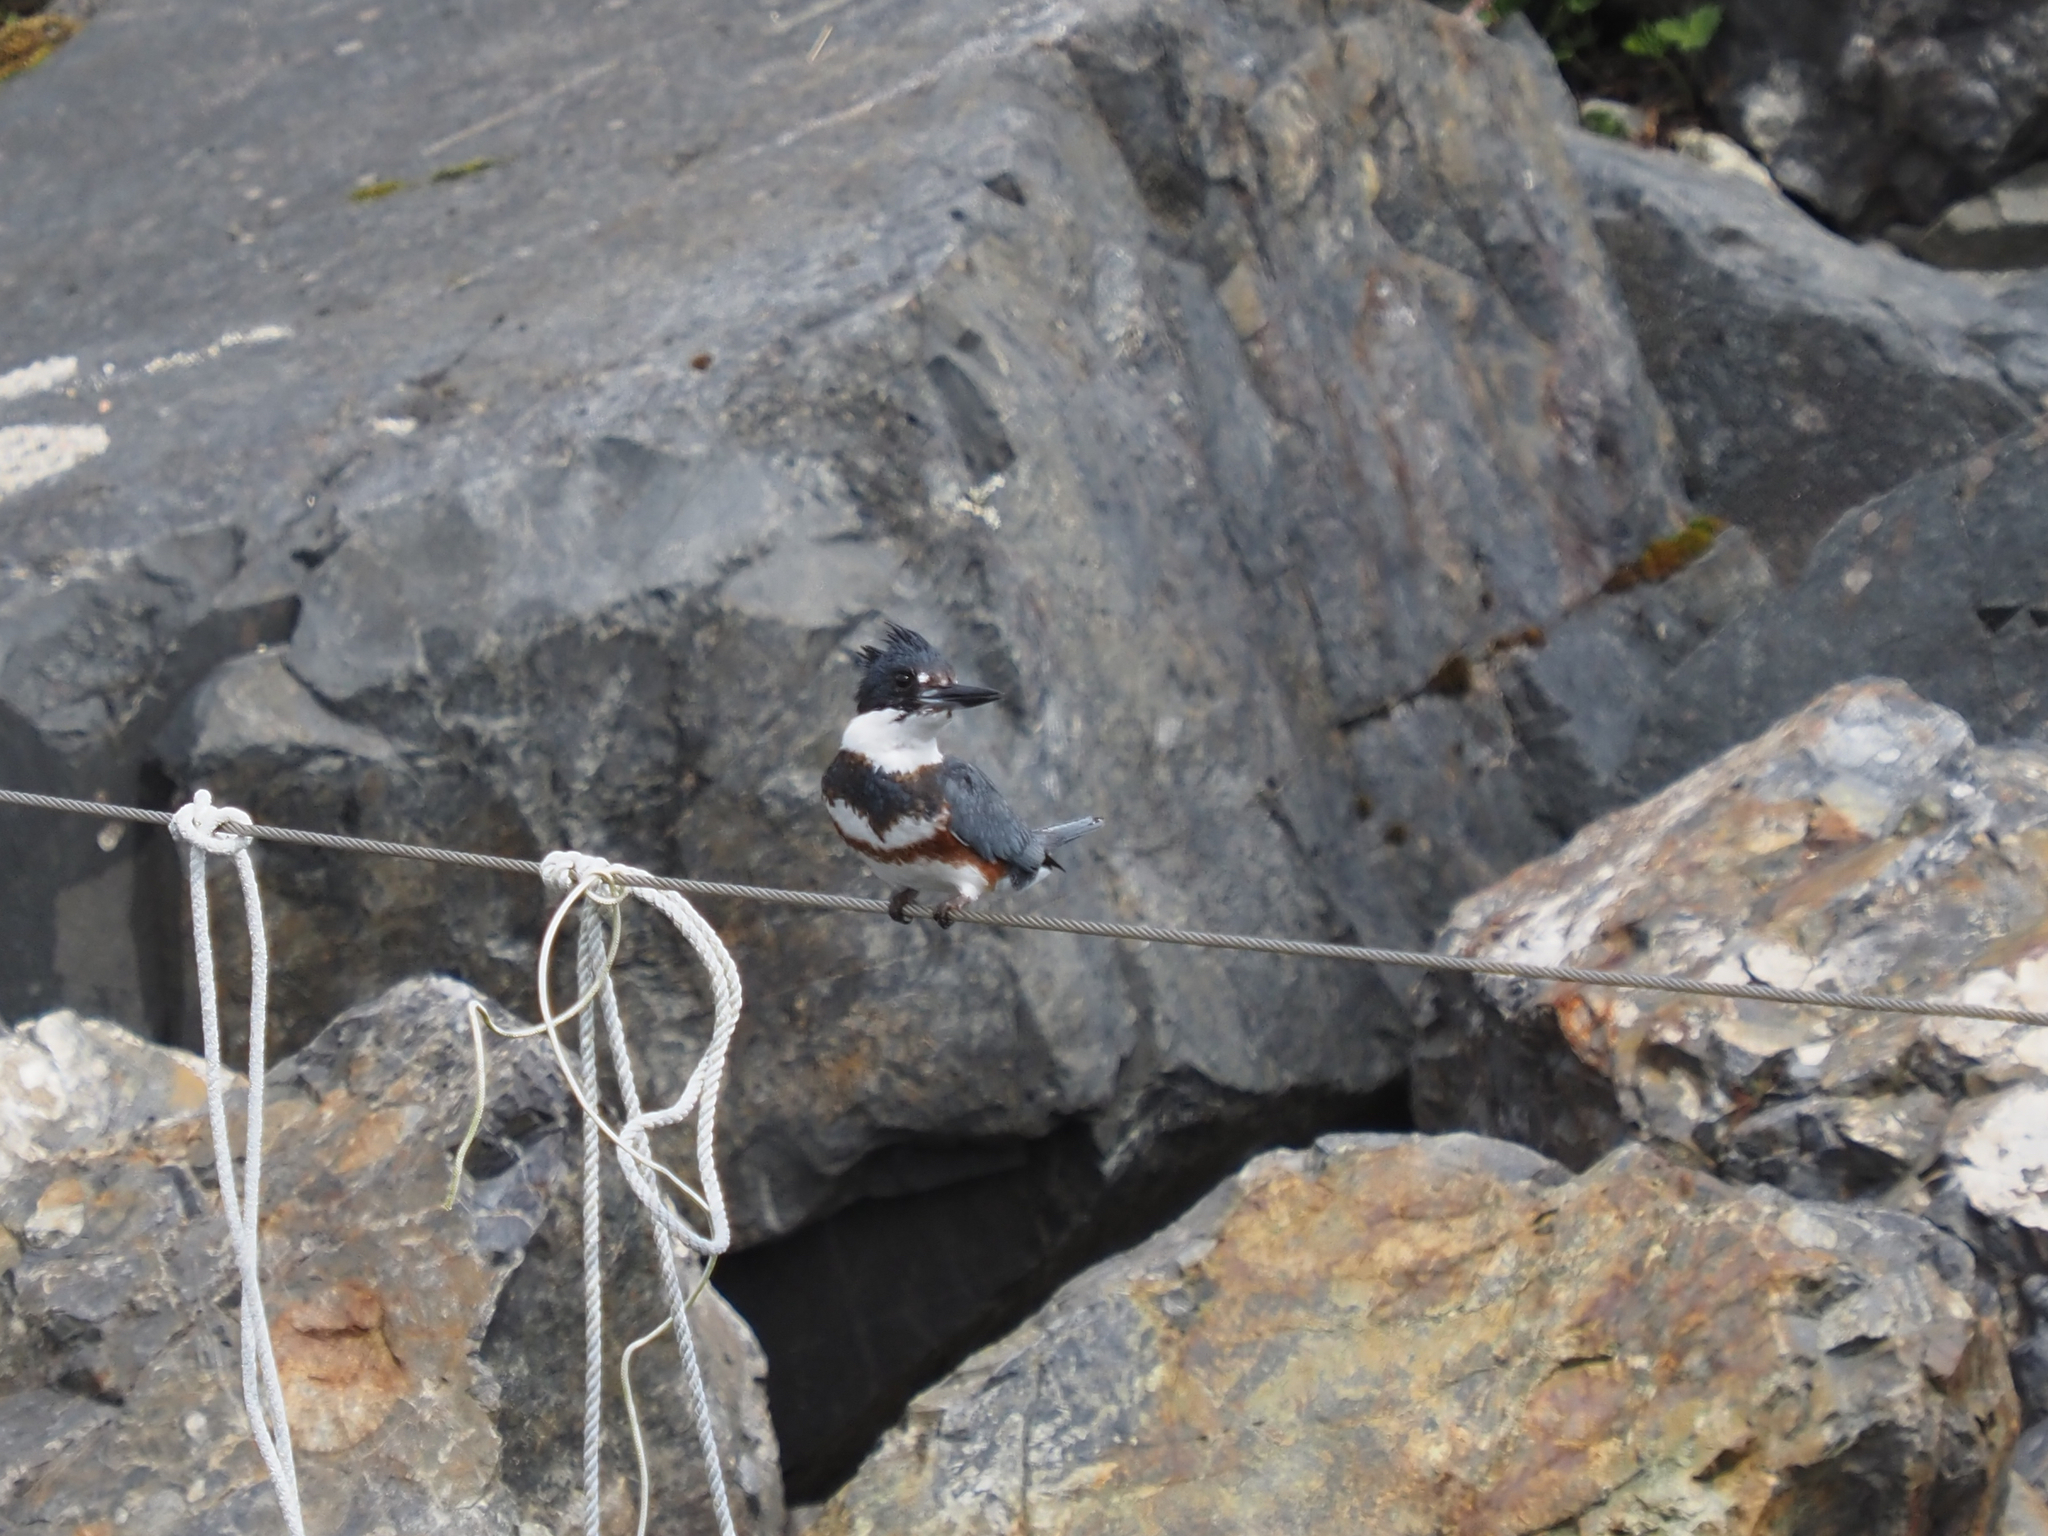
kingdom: Animalia
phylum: Chordata
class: Aves
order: Coraciiformes
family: Alcedinidae
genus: Megaceryle
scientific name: Megaceryle alcyon
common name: Belted kingfisher
